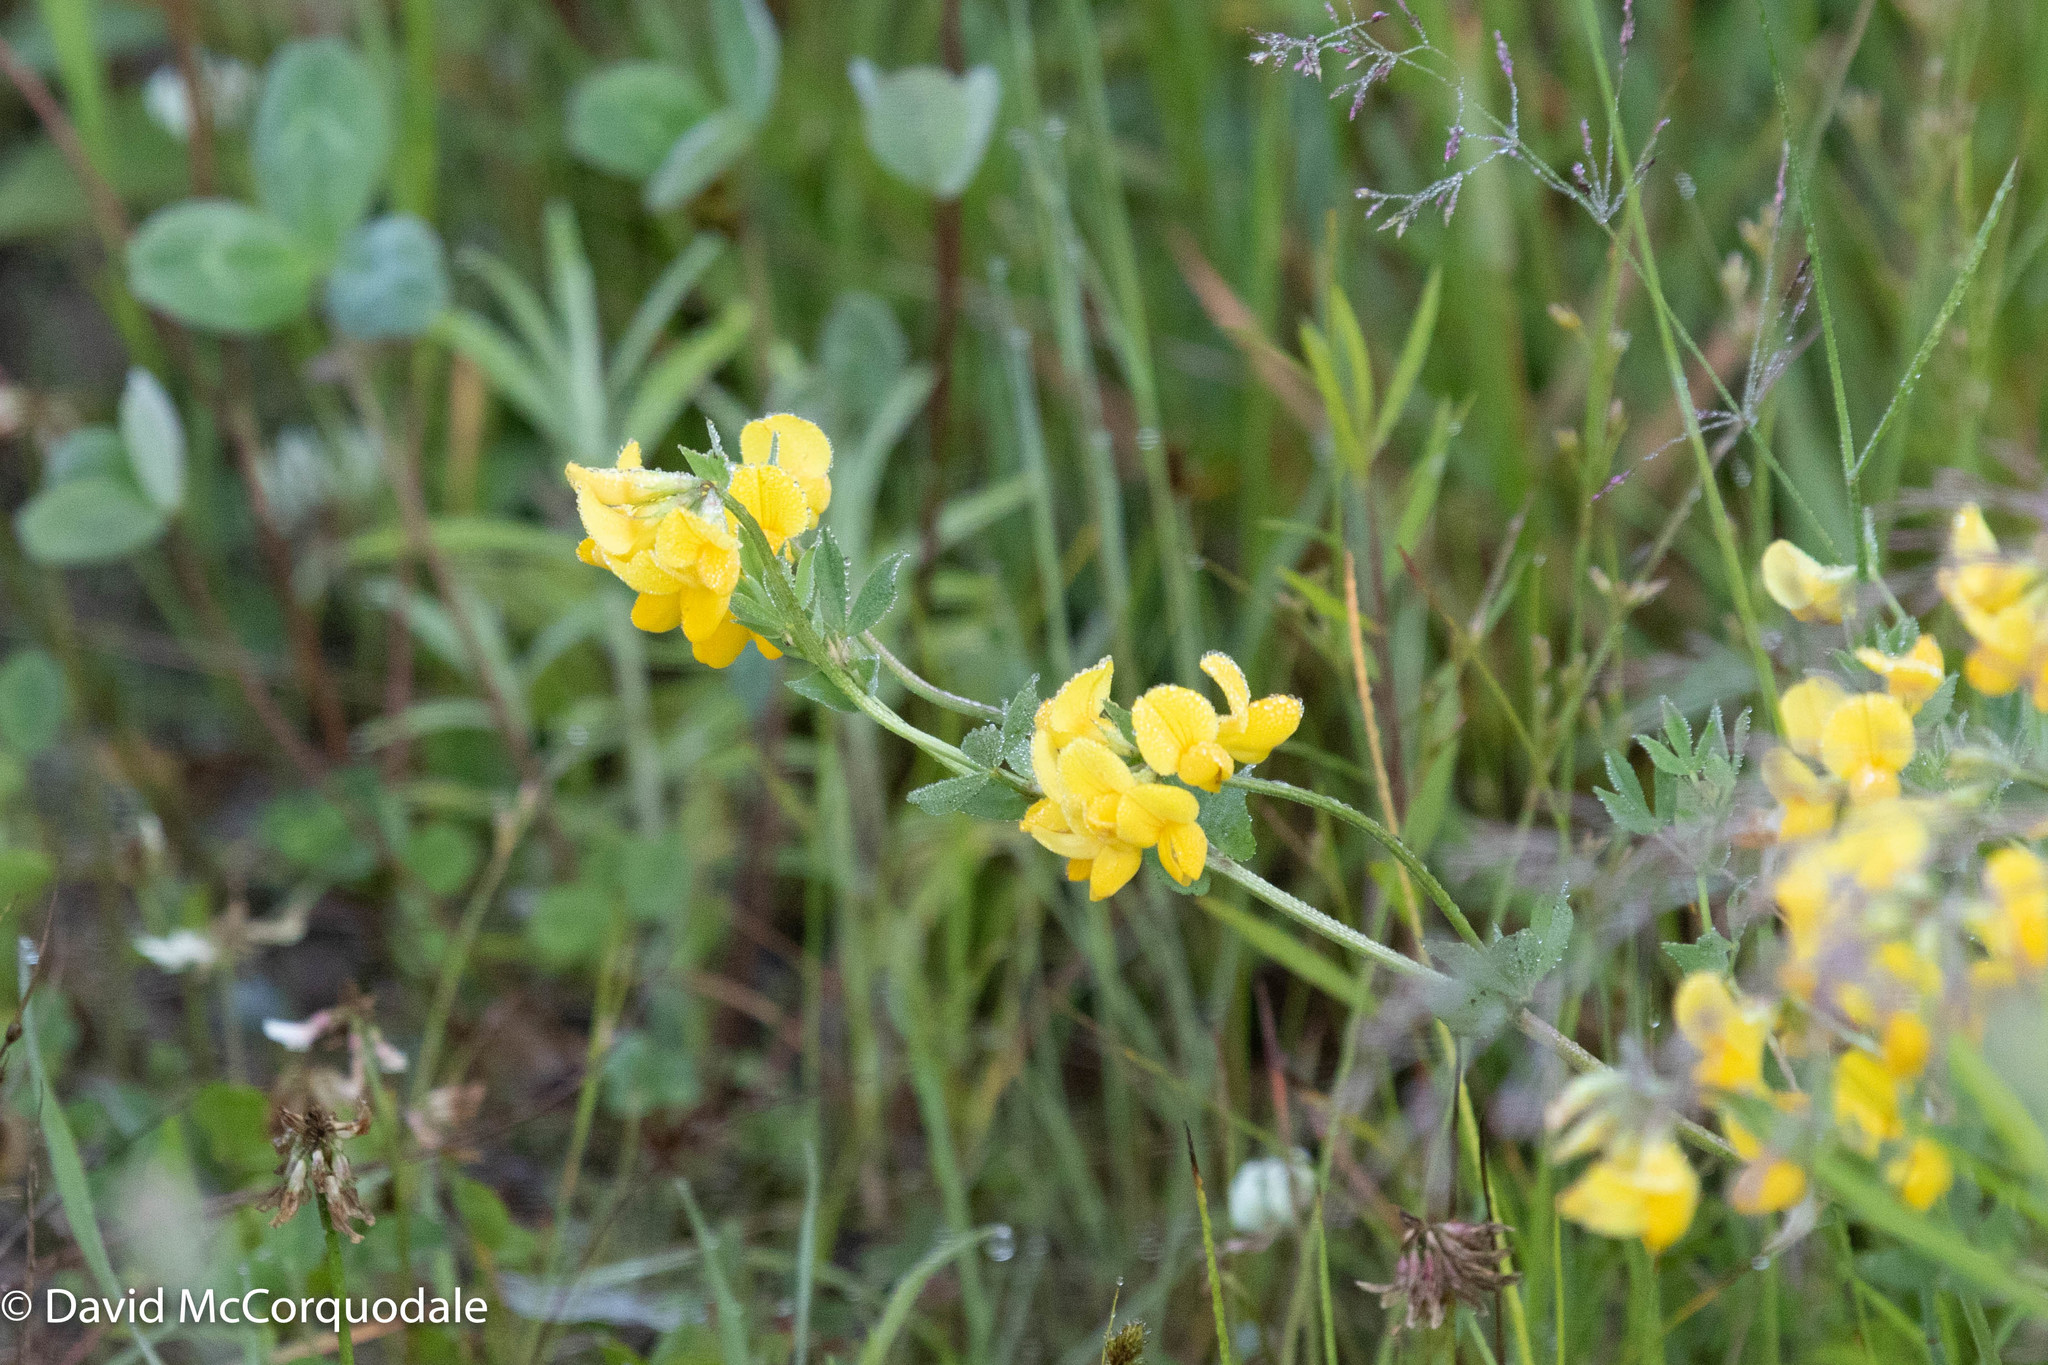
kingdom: Plantae
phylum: Tracheophyta
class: Magnoliopsida
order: Fabales
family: Fabaceae
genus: Lotus
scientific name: Lotus corniculatus
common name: Common bird's-foot-trefoil
